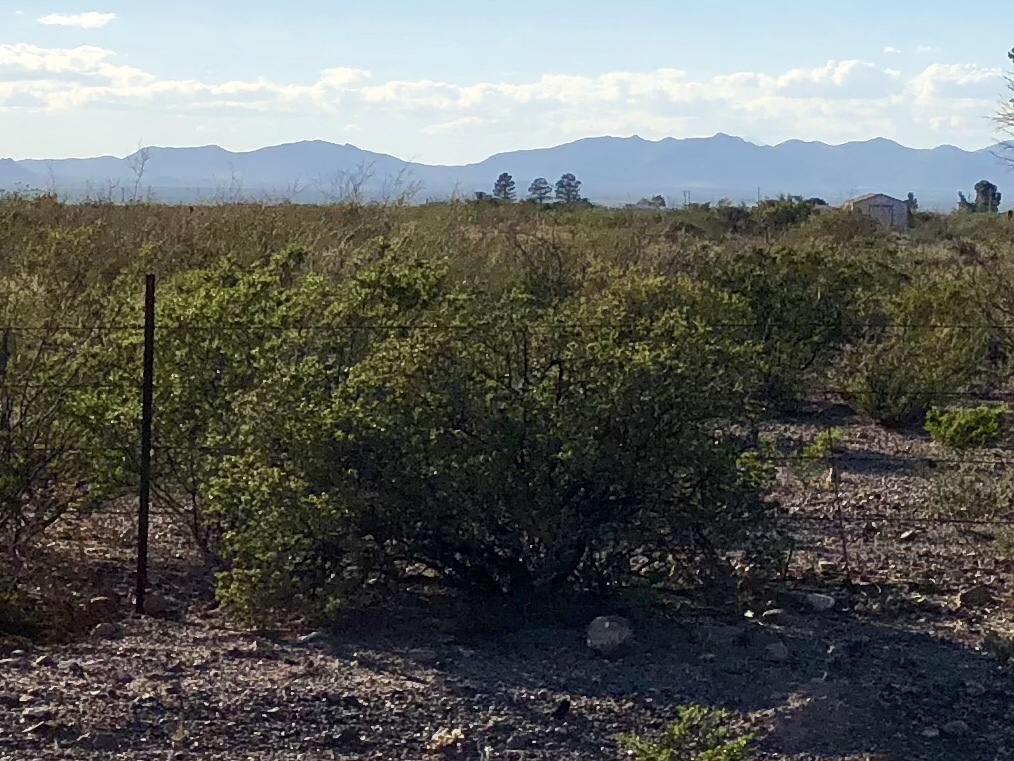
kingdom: Plantae
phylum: Tracheophyta
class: Magnoliopsida
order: Zygophyllales
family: Zygophyllaceae
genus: Larrea
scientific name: Larrea tridentata
